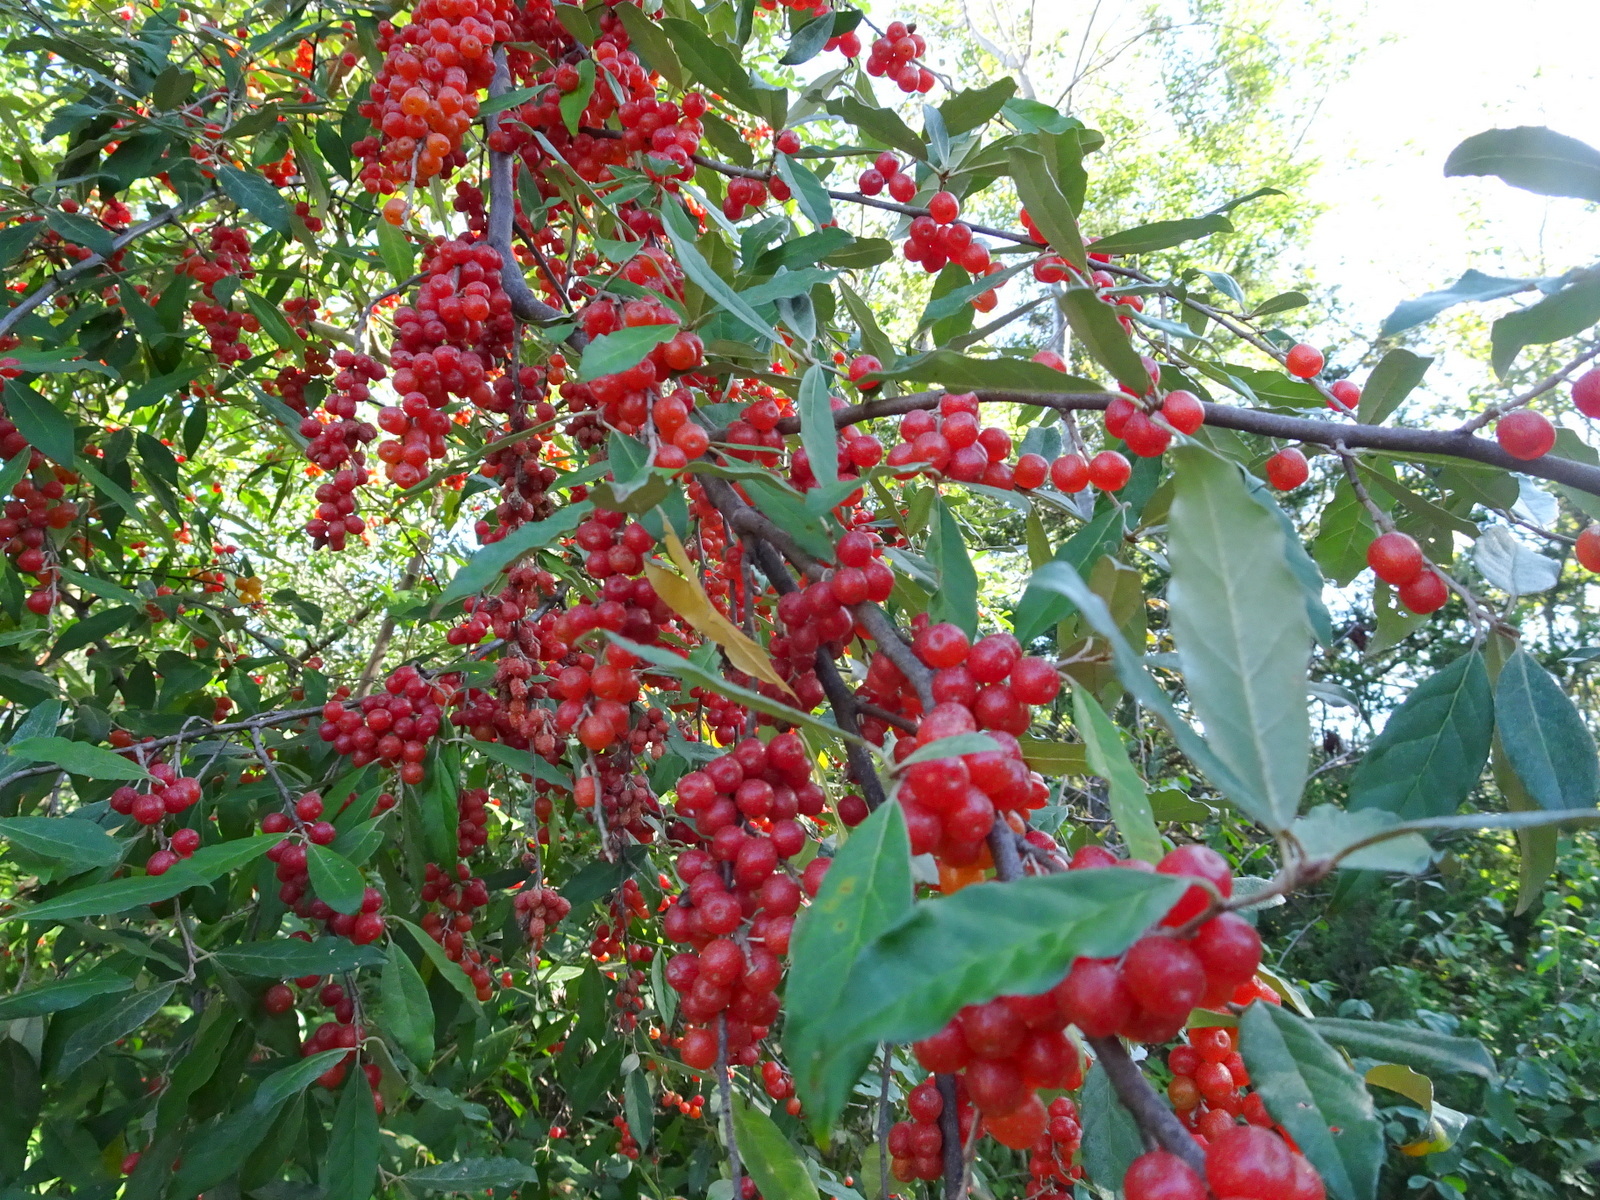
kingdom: Plantae
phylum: Tracheophyta
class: Magnoliopsida
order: Rosales
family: Elaeagnaceae
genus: Elaeagnus
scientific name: Elaeagnus umbellata
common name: Autumn olive
